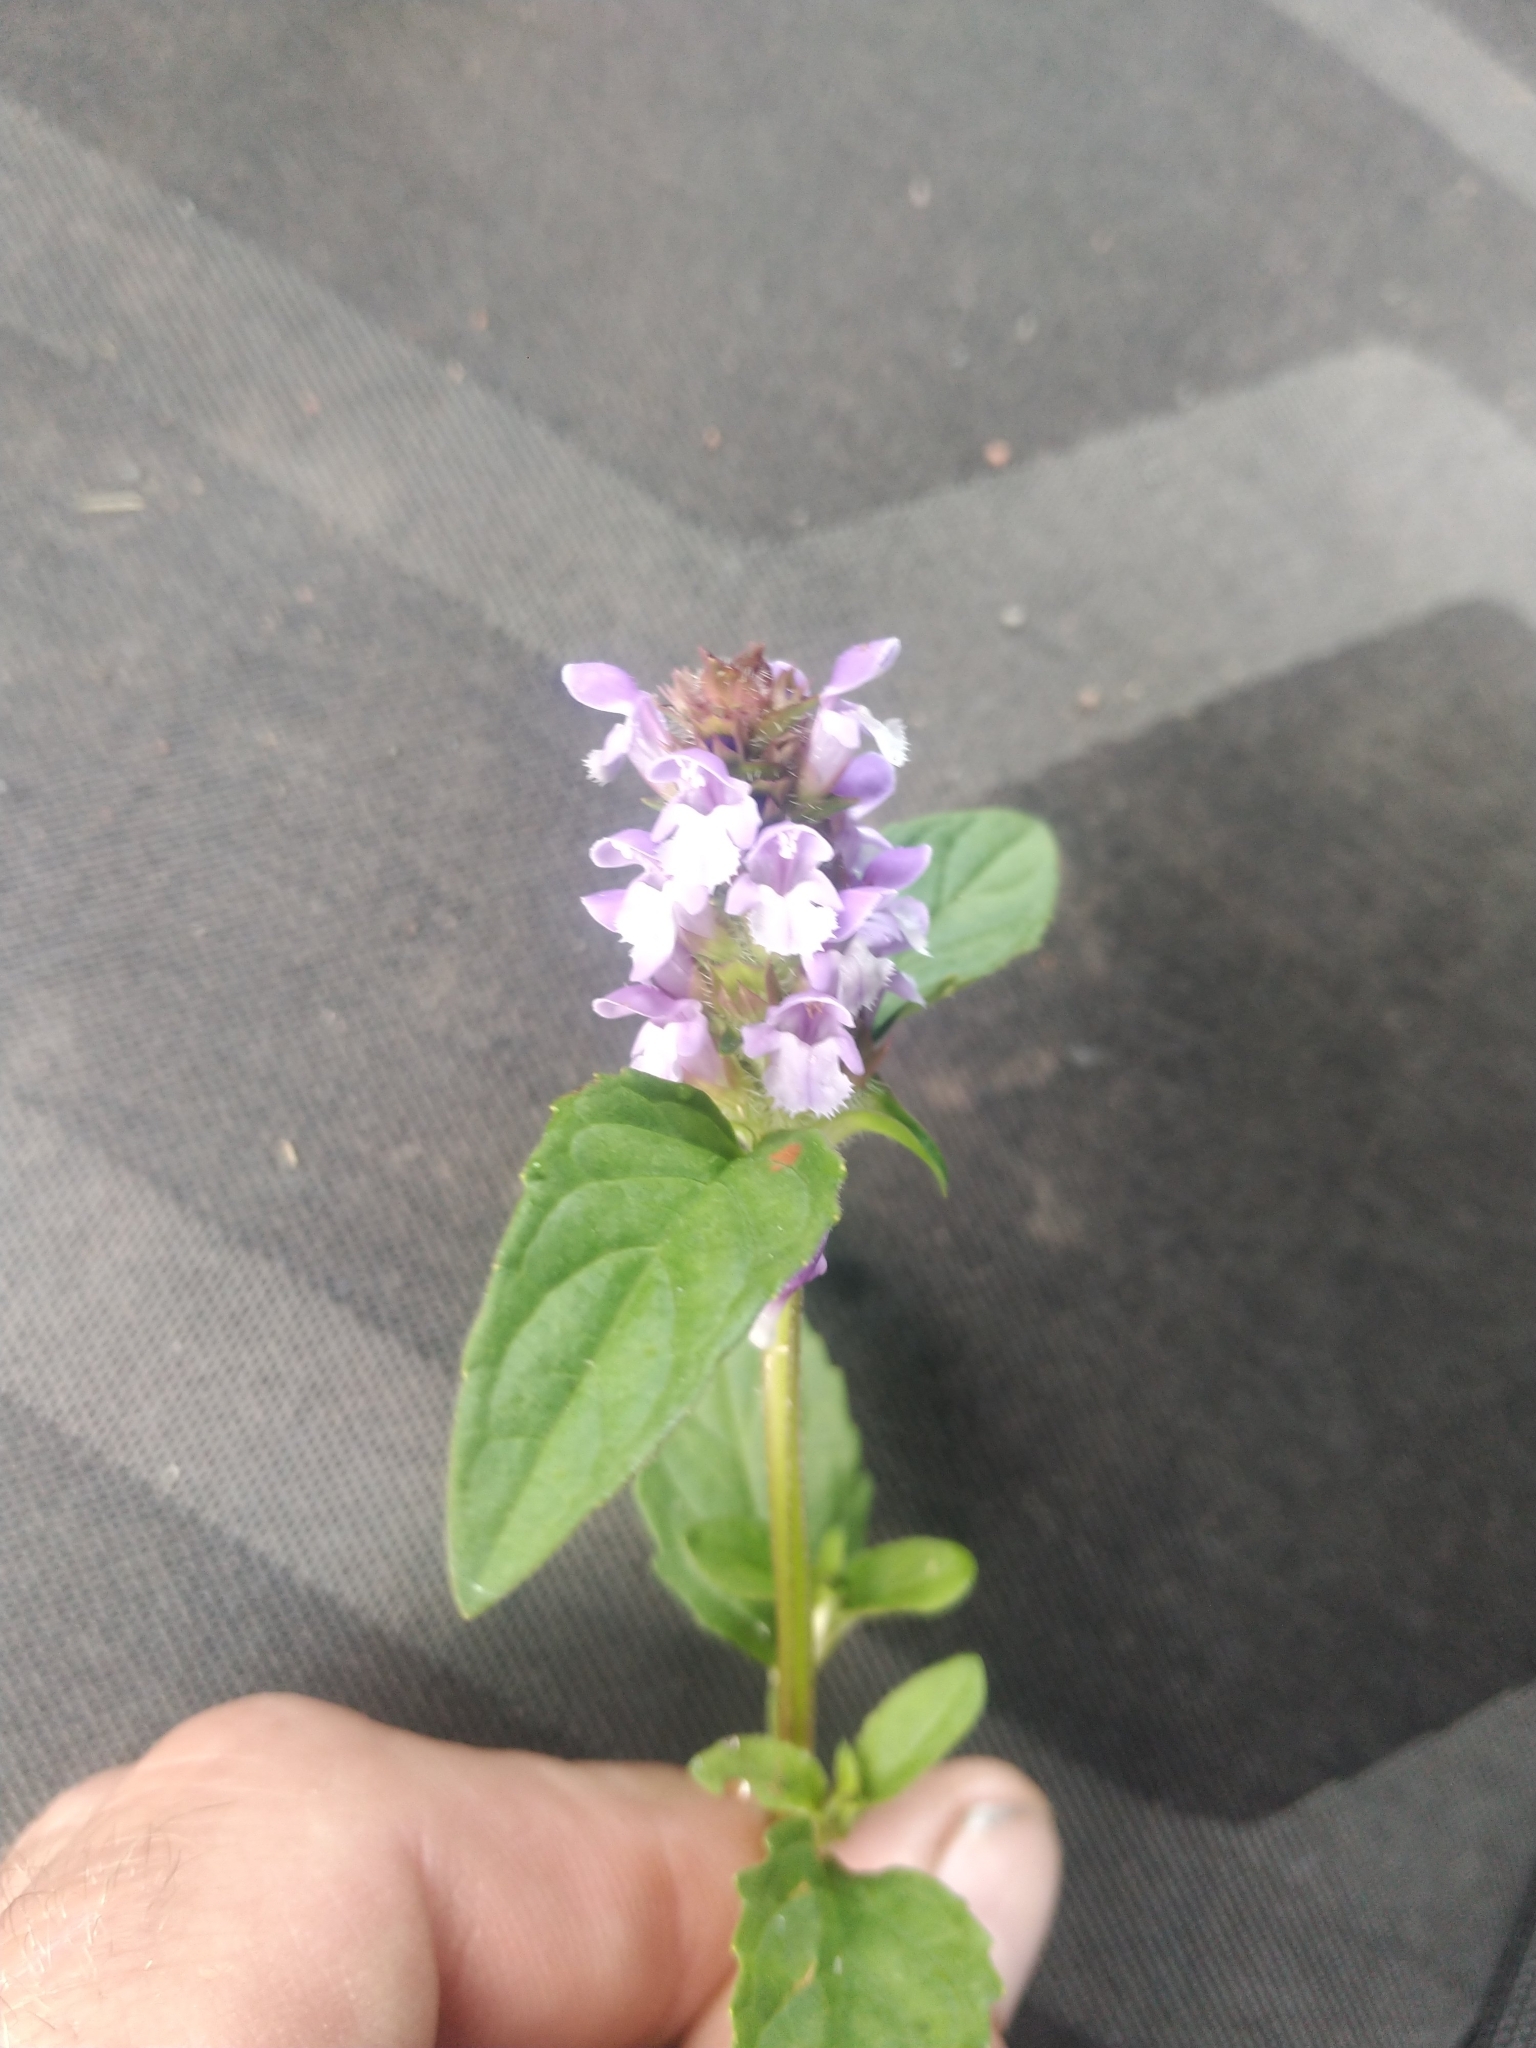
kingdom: Plantae
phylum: Tracheophyta
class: Magnoliopsida
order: Lamiales
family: Lamiaceae
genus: Prunella
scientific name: Prunella vulgaris
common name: Heal-all
